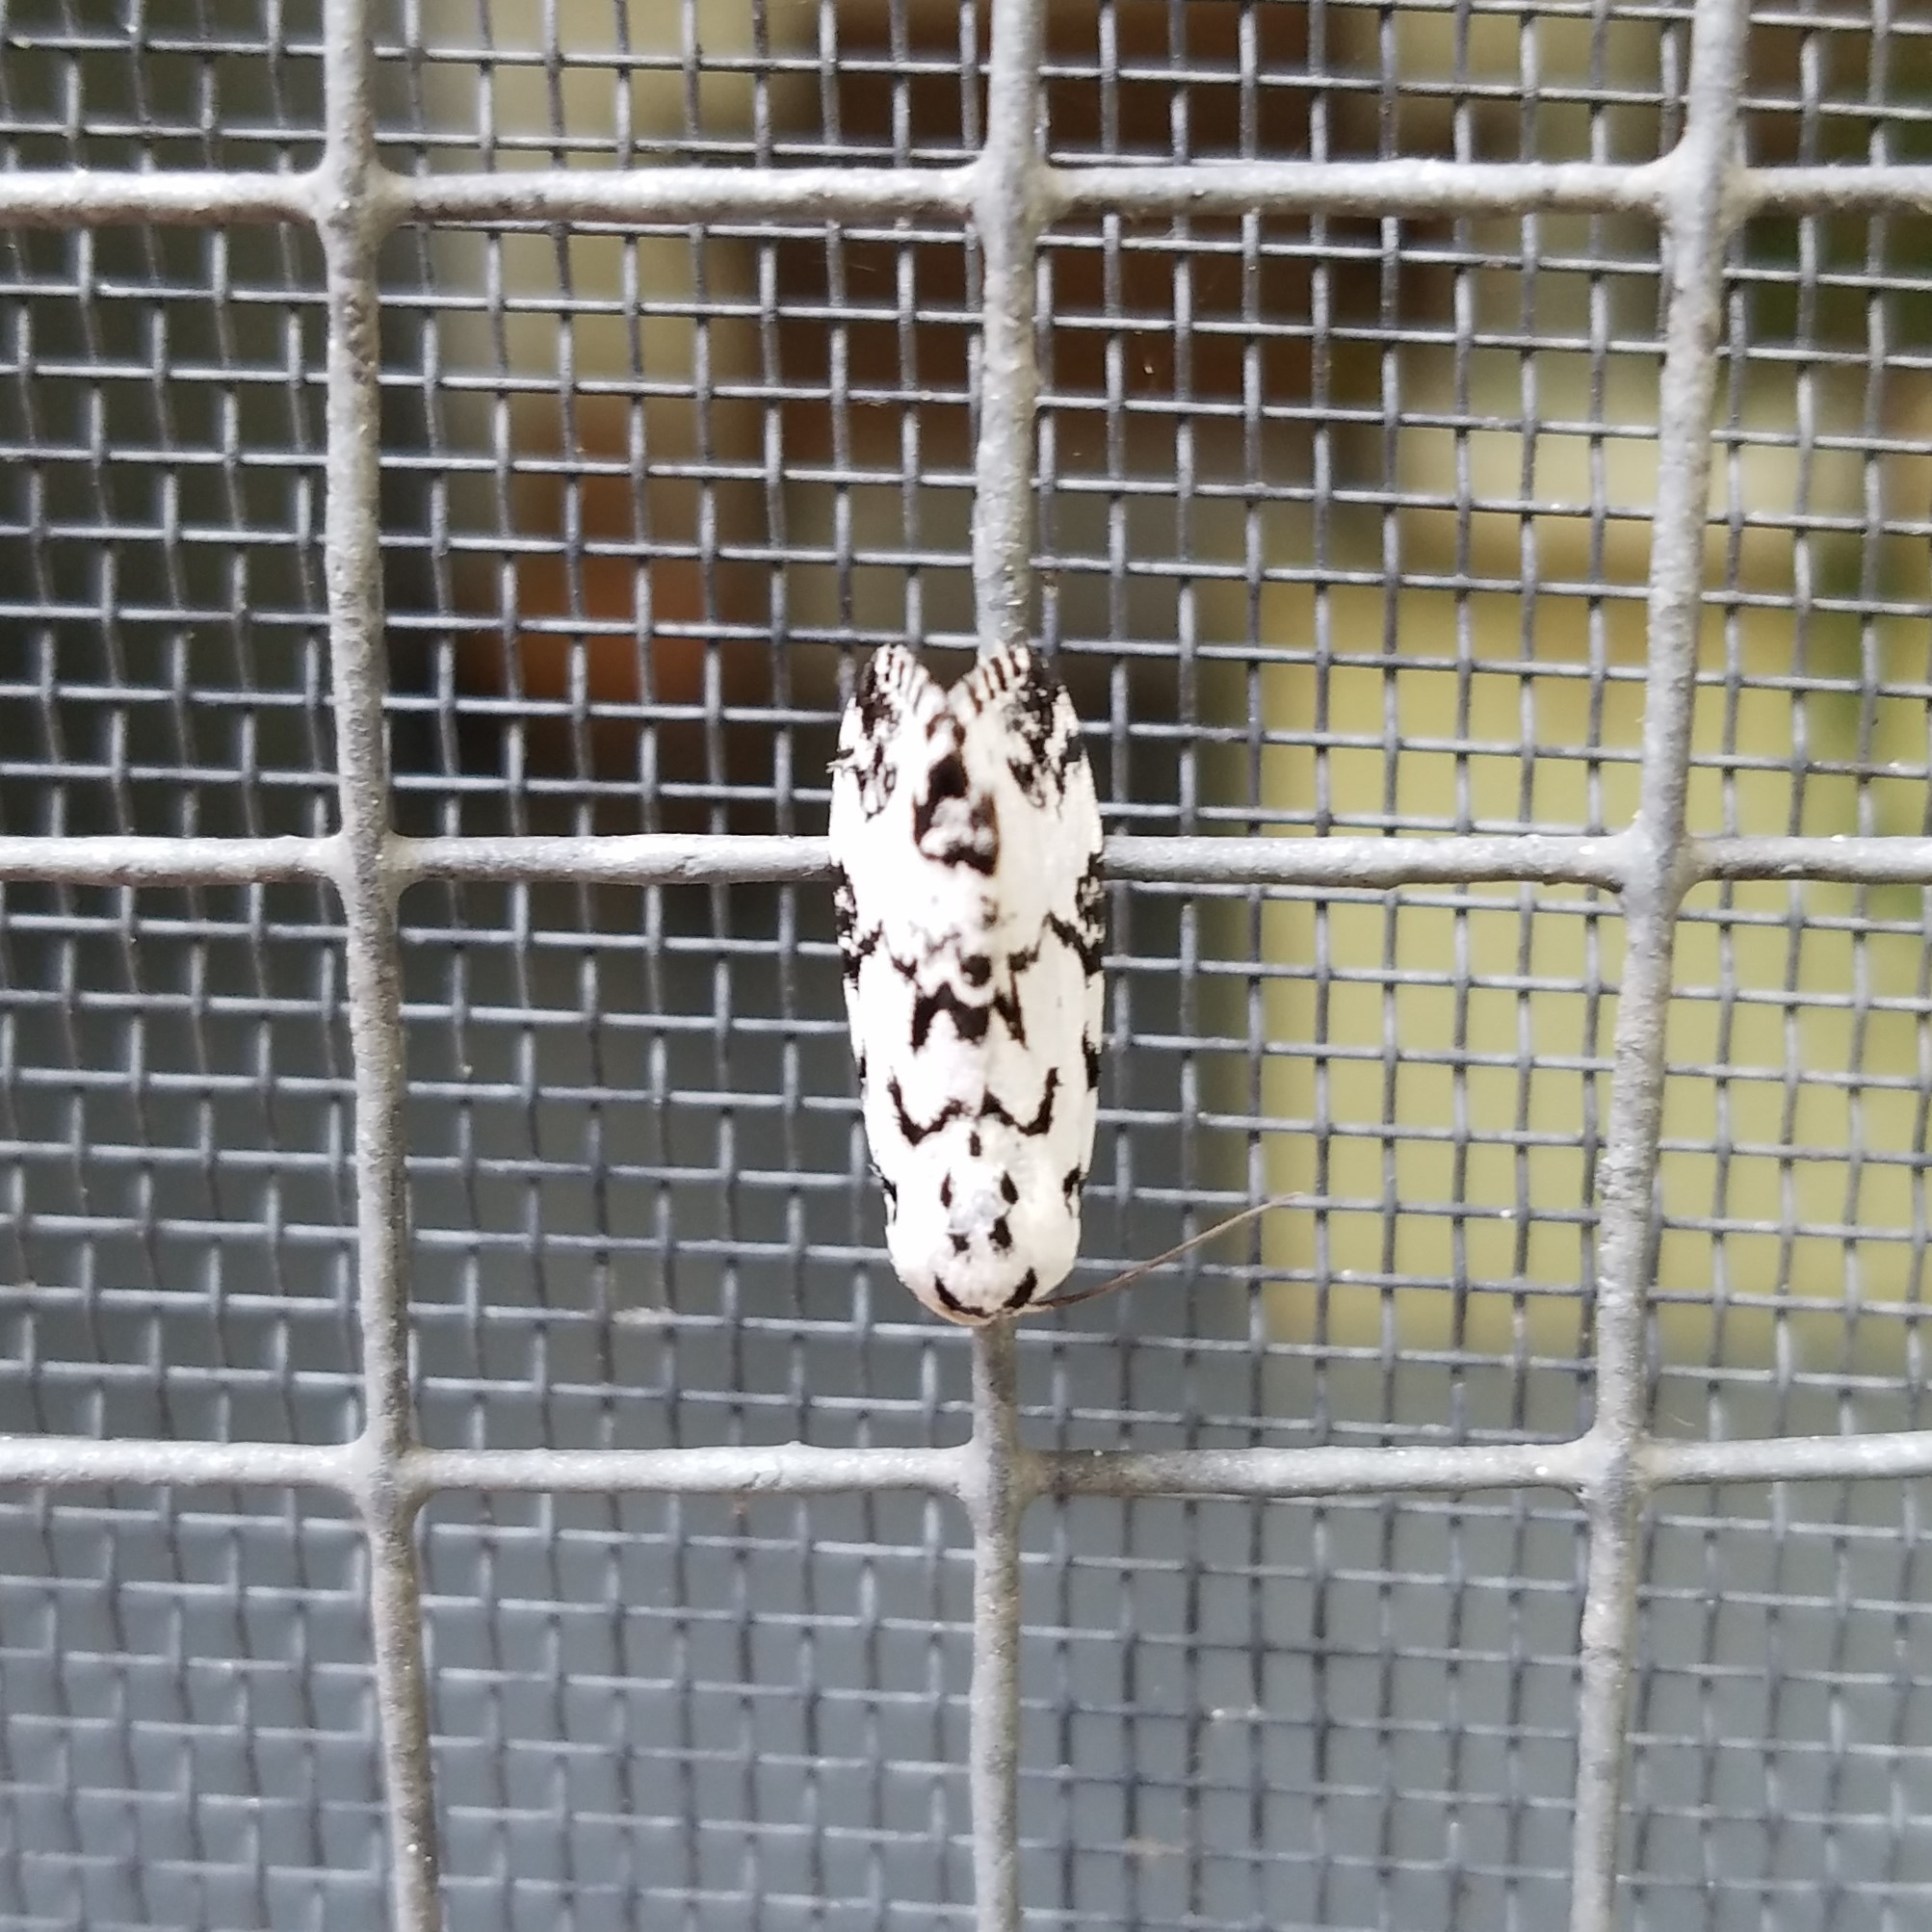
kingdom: Animalia
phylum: Arthropoda
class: Insecta
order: Lepidoptera
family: Noctuidae
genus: Polygrammate
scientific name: Polygrammate hebraeicum
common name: Hebrew moth
